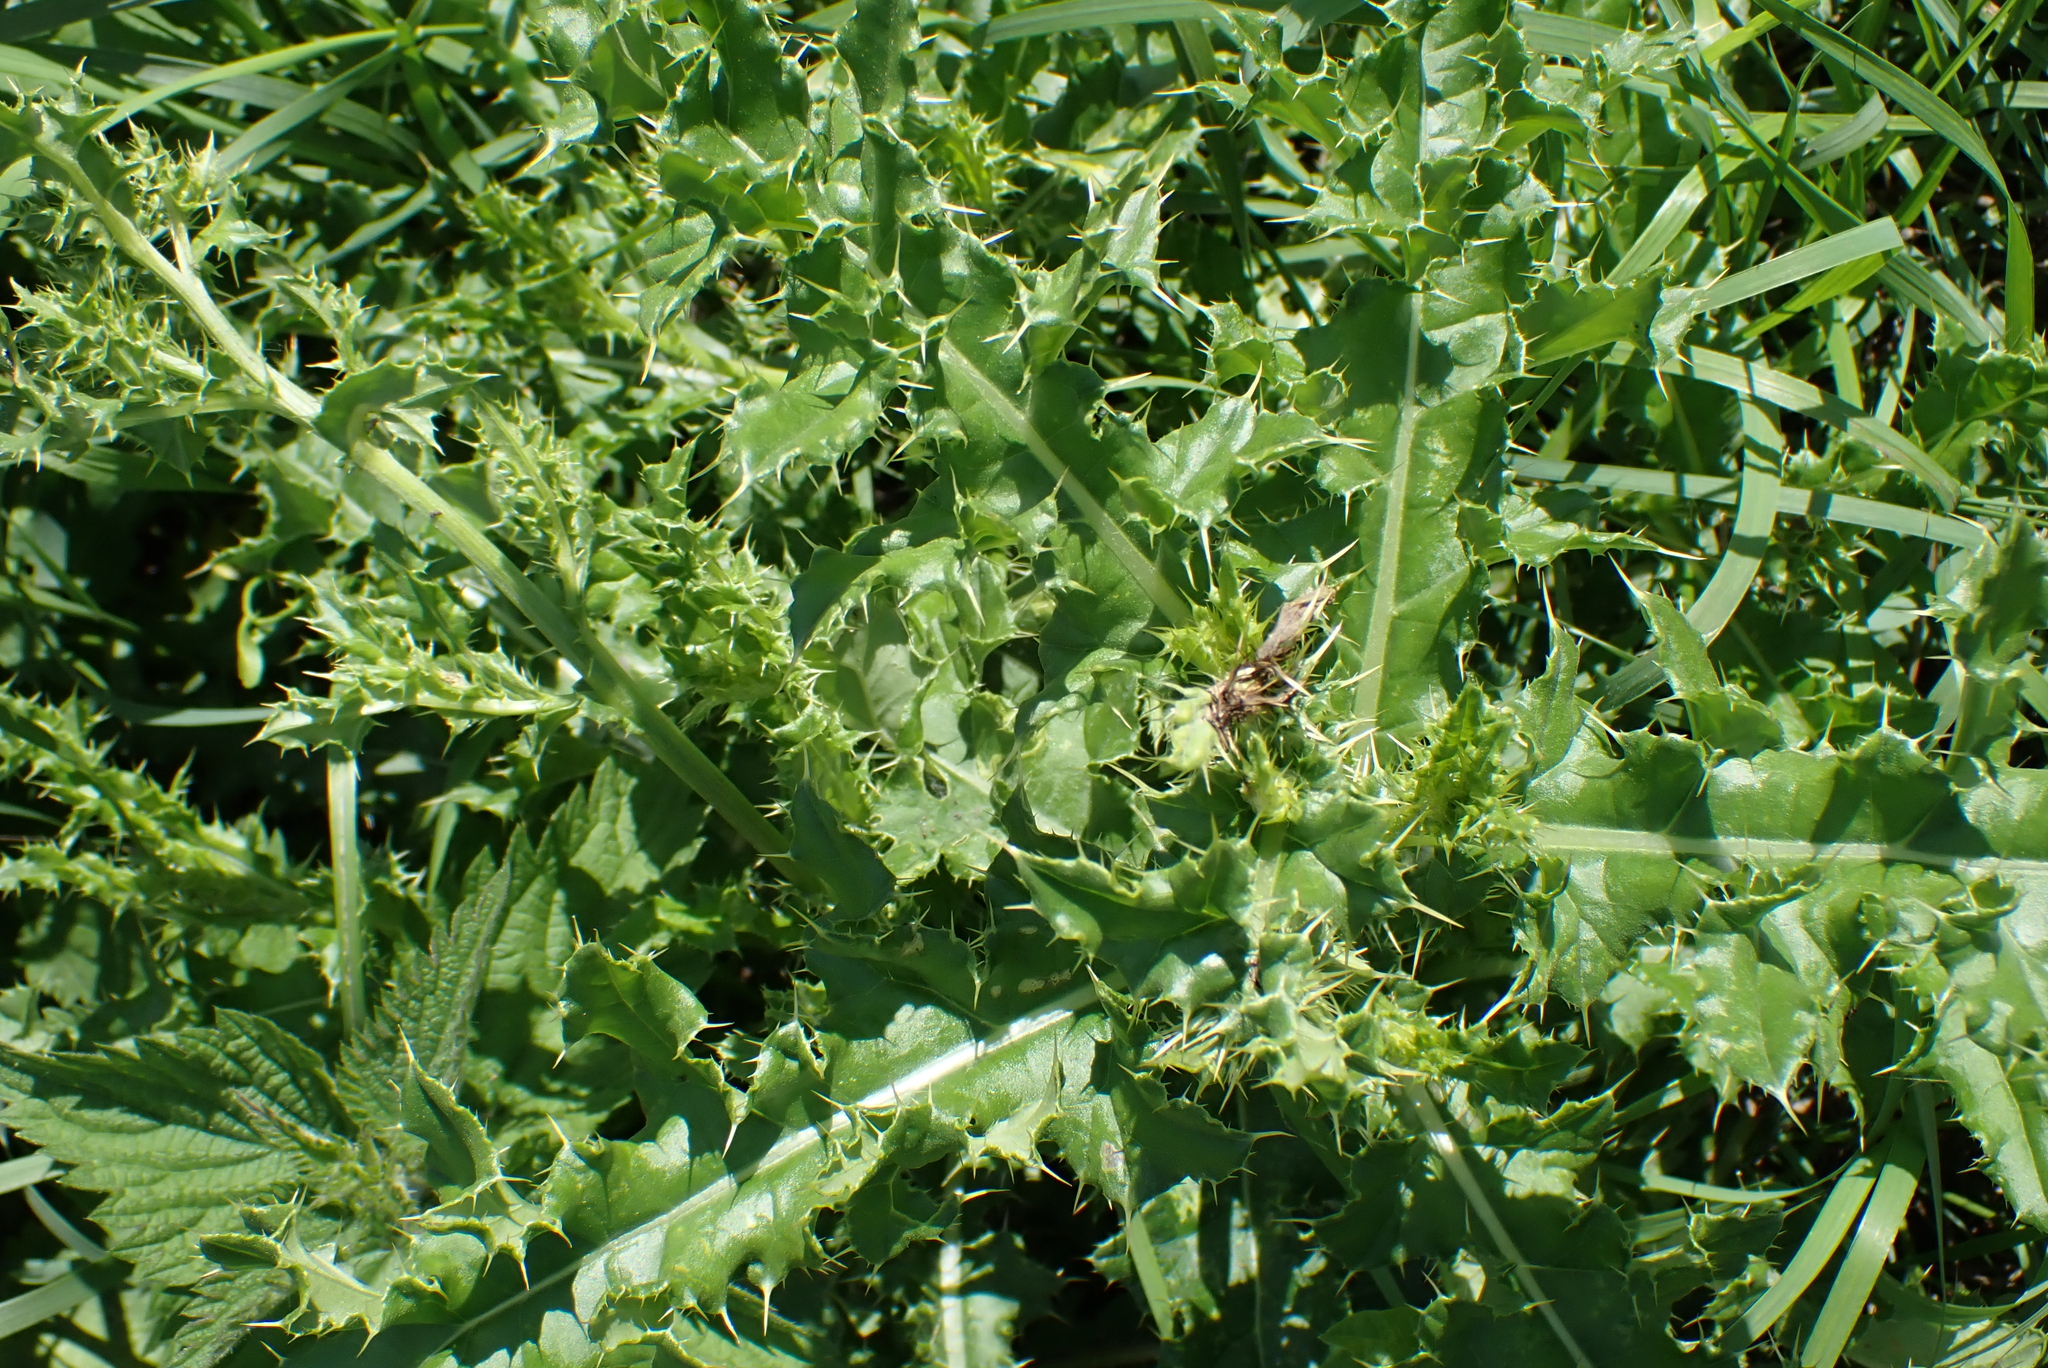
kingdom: Plantae
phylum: Tracheophyta
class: Magnoliopsida
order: Asterales
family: Asteraceae
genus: Cirsium
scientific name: Cirsium arvense
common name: Creeping thistle
